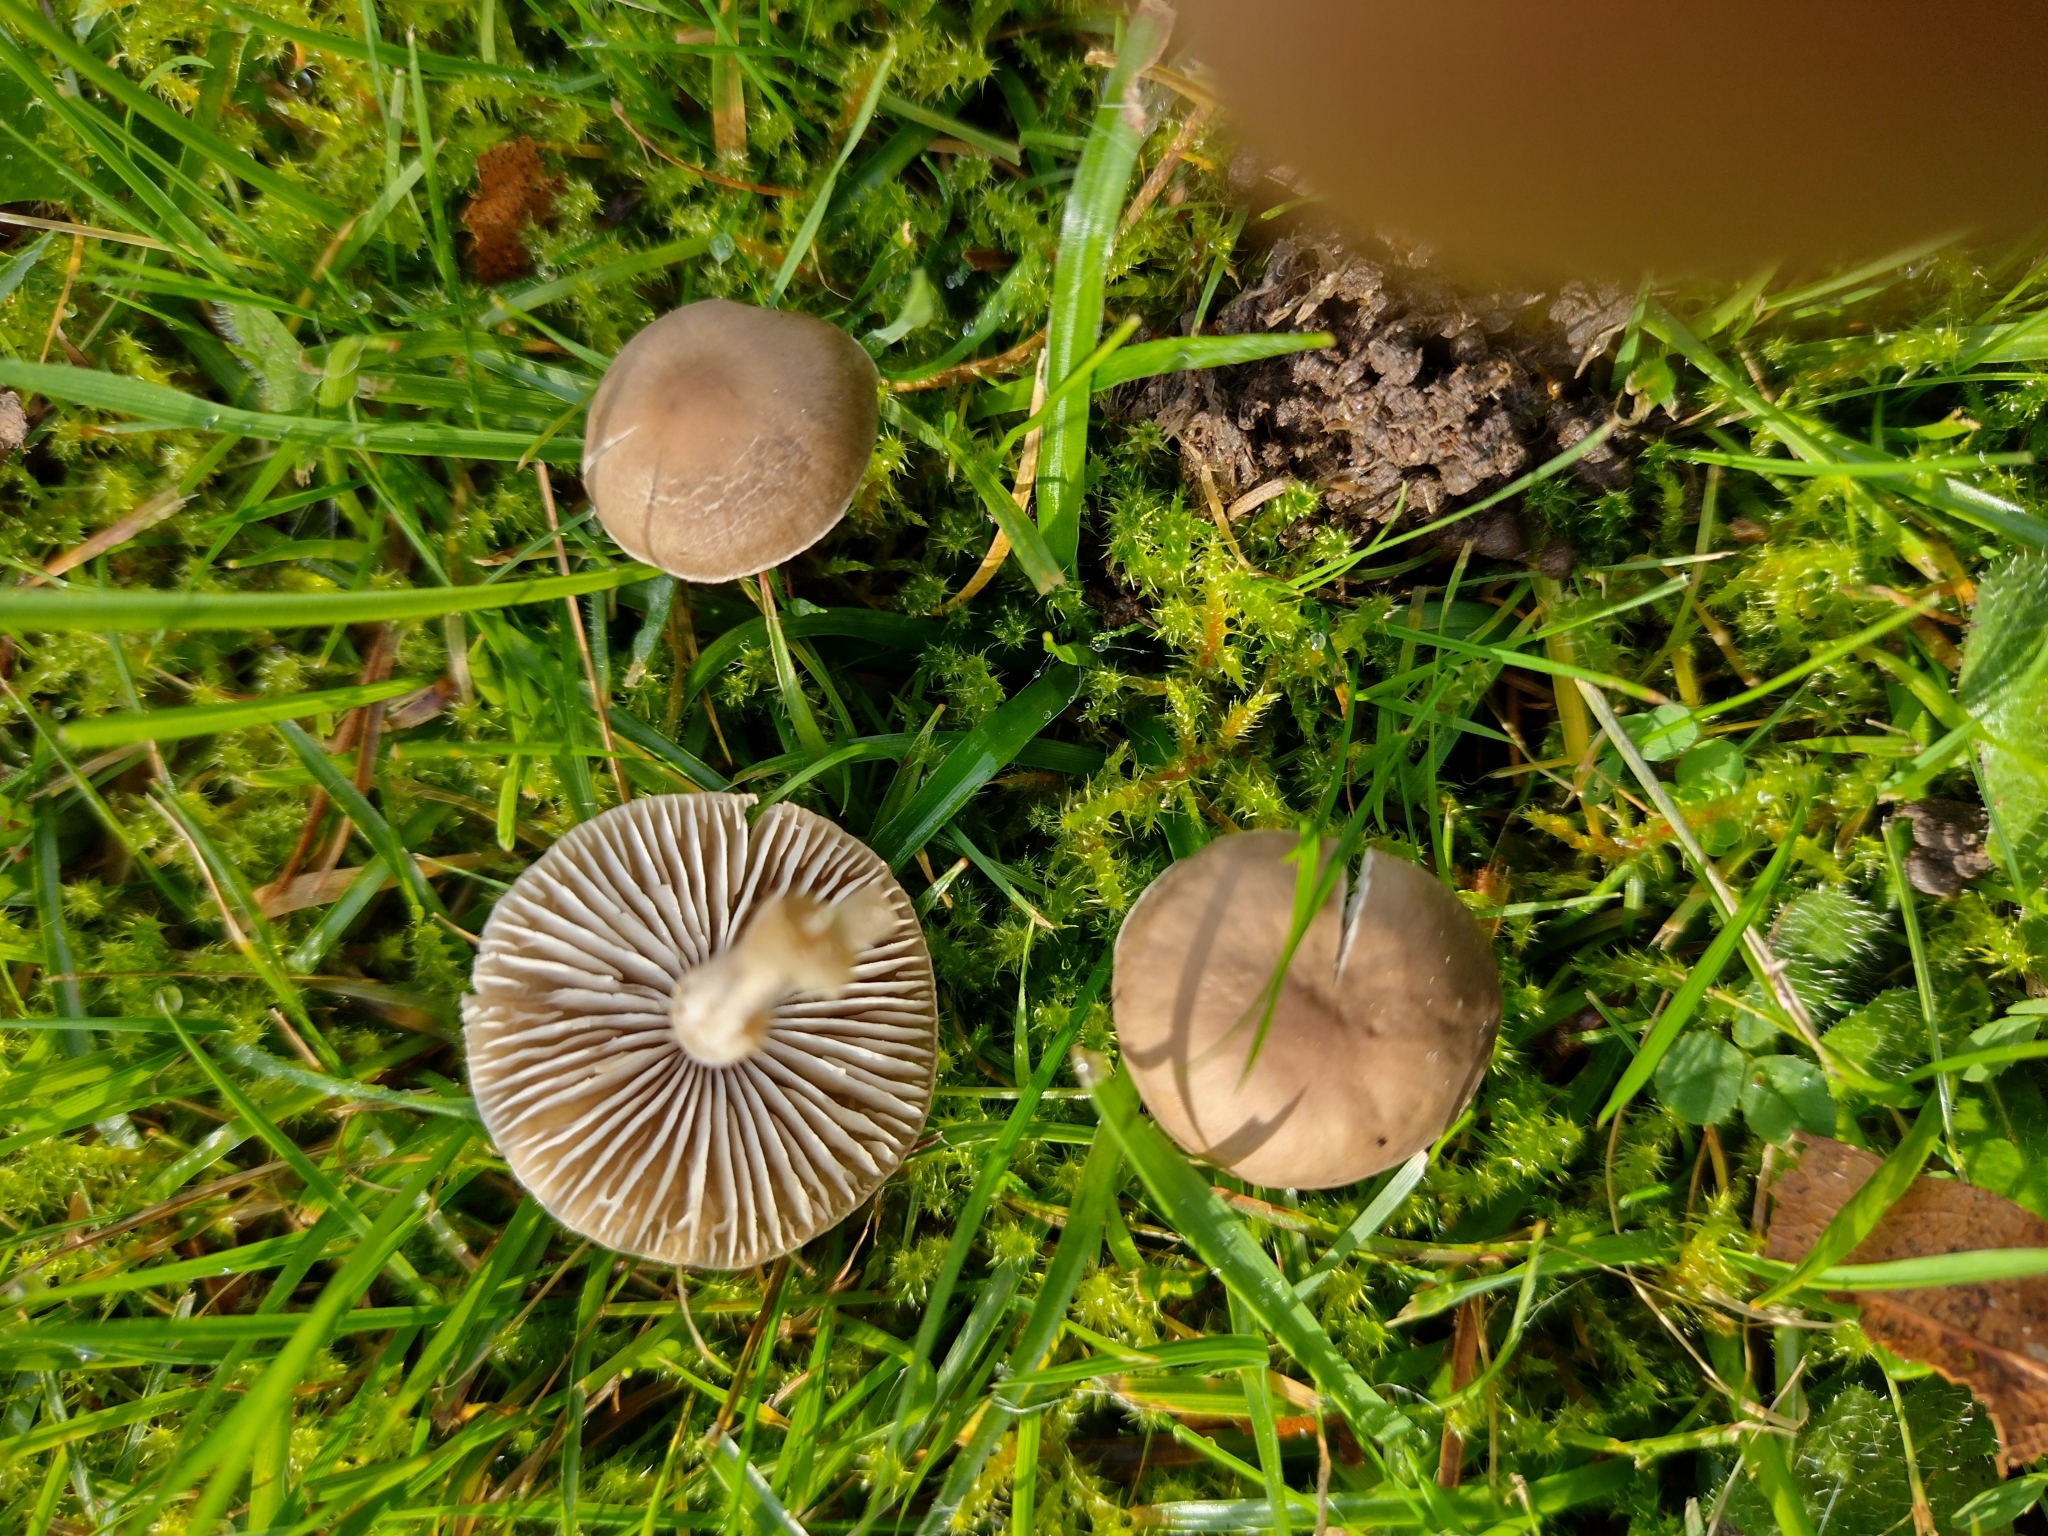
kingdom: Fungi
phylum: Basidiomycota
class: Agaricomycetes
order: Agaricales
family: Tricholomataceae
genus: Dermoloma
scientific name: Dermoloma cuneifolium
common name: Crazed cap
